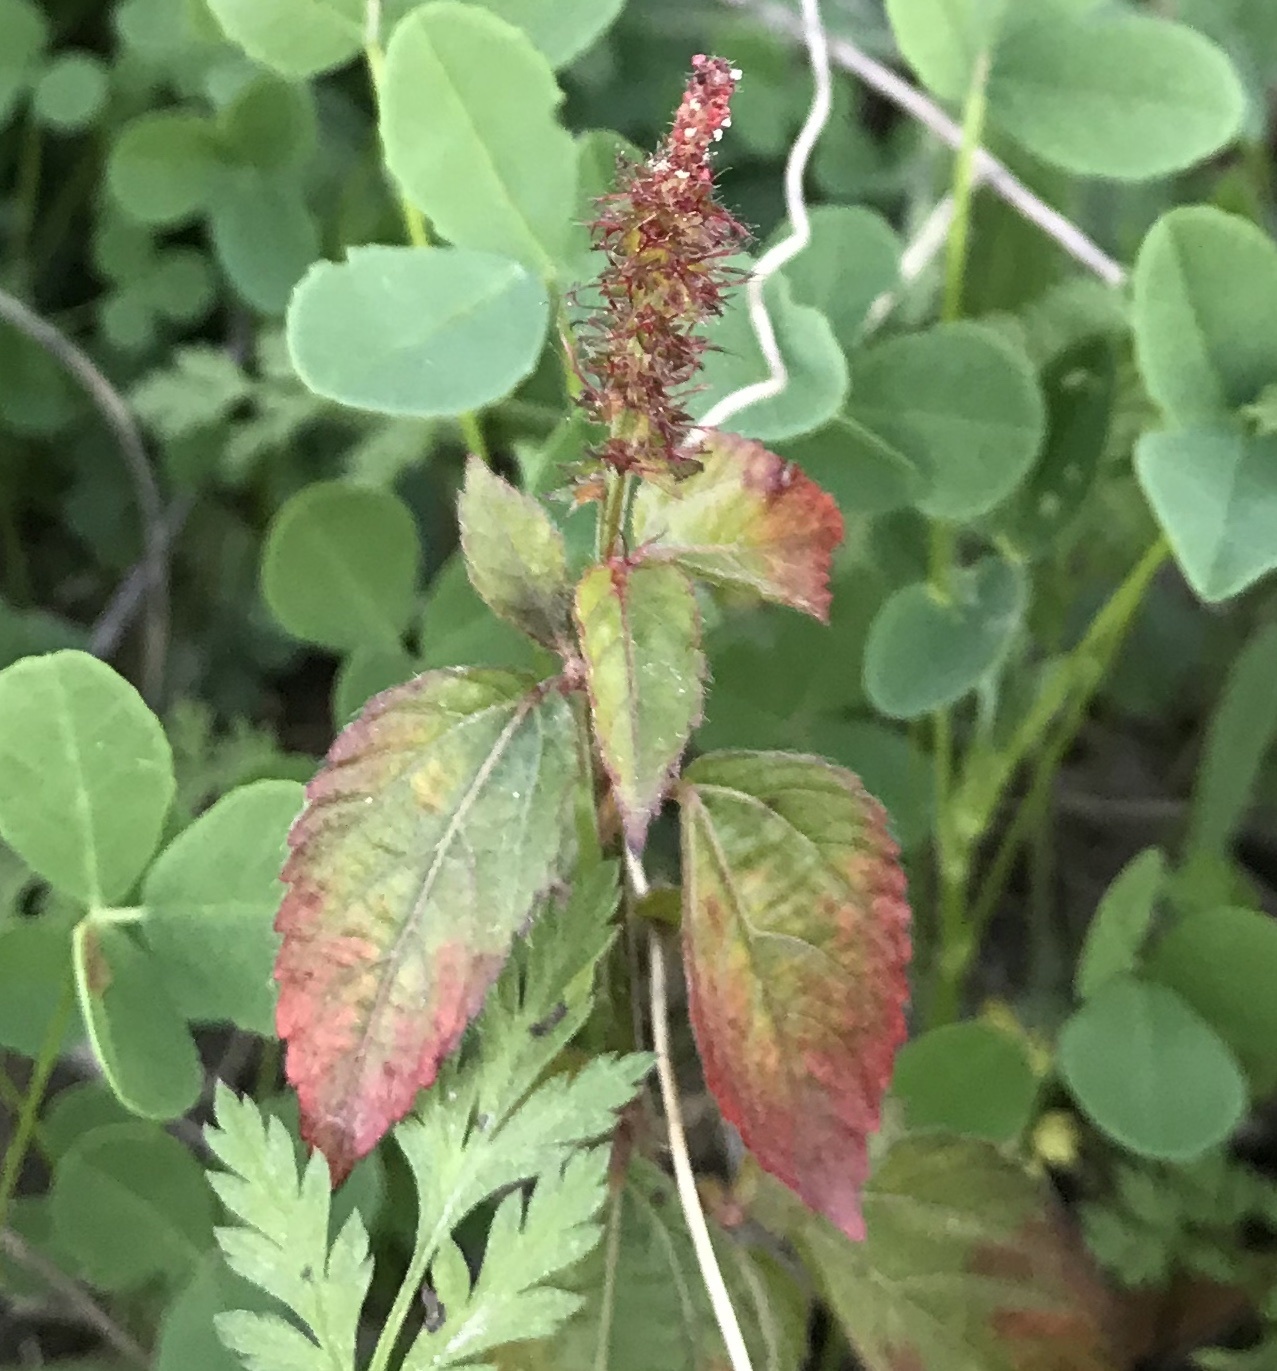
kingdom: Plantae
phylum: Tracheophyta
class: Magnoliopsida
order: Malpighiales
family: Euphorbiaceae
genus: Acalypha
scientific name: Acalypha phleoides
